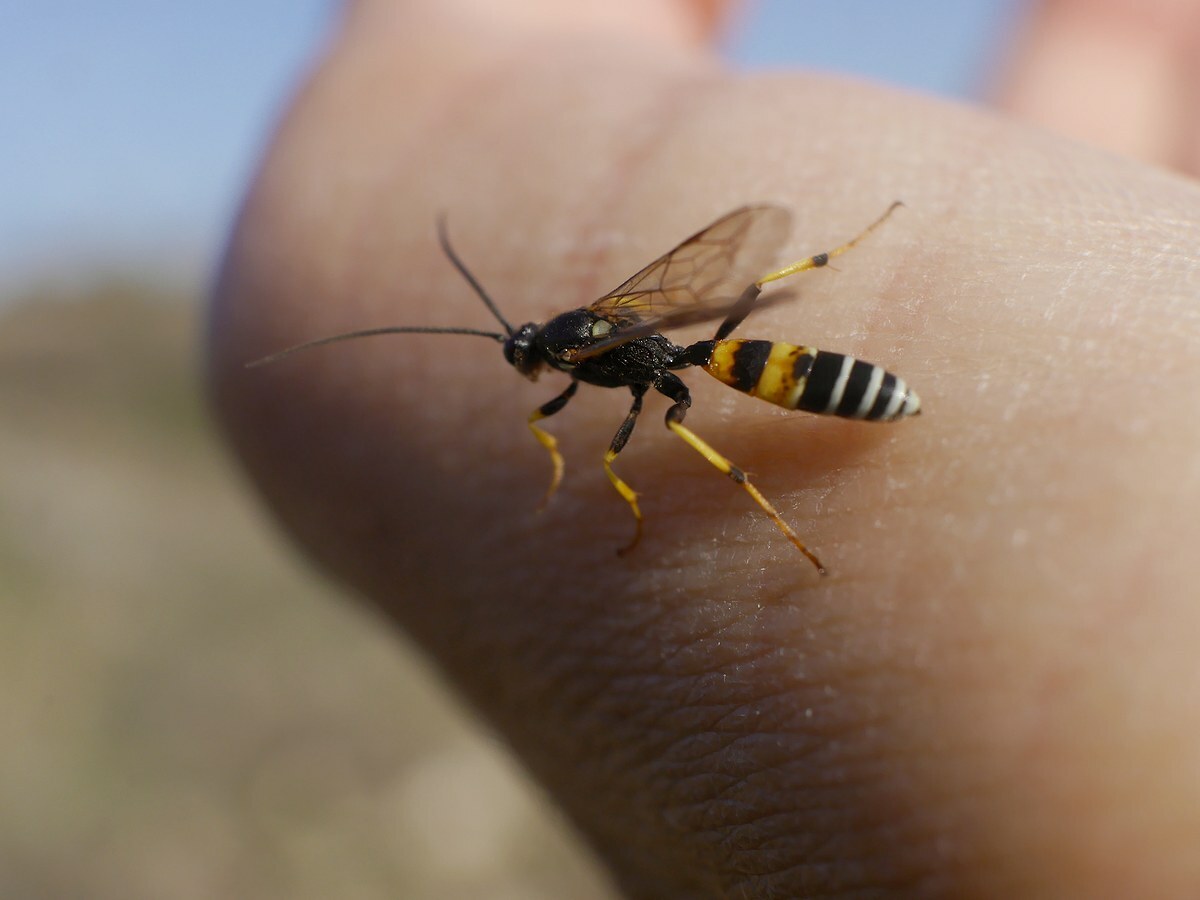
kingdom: Animalia
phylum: Arthropoda
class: Insecta
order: Hymenoptera
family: Ichneumonidae
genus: Spilichneumon
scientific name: Spilichneumon occisorius
